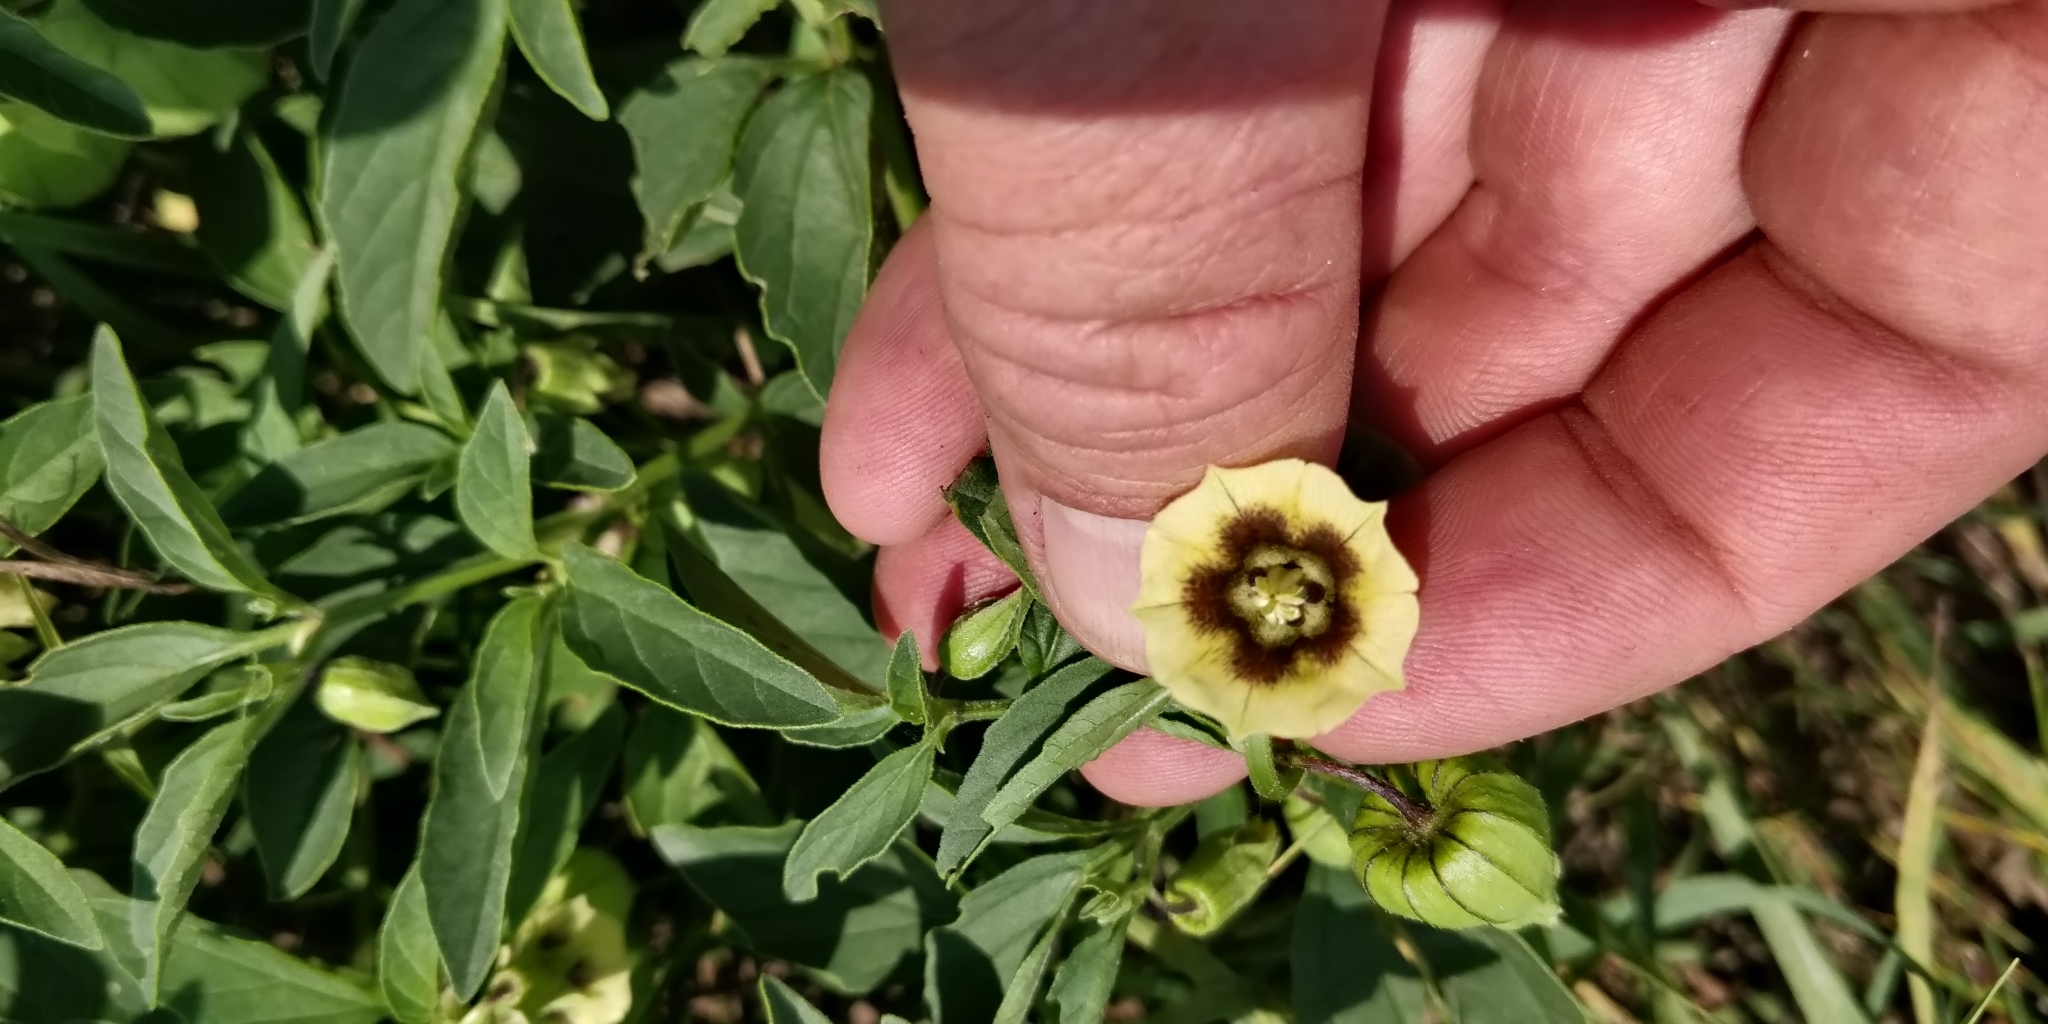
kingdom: Plantae
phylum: Tracheophyta
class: Magnoliopsida
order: Solanales
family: Solanaceae
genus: Physalis
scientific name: Physalis longifolia
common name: Common ground-cherry
